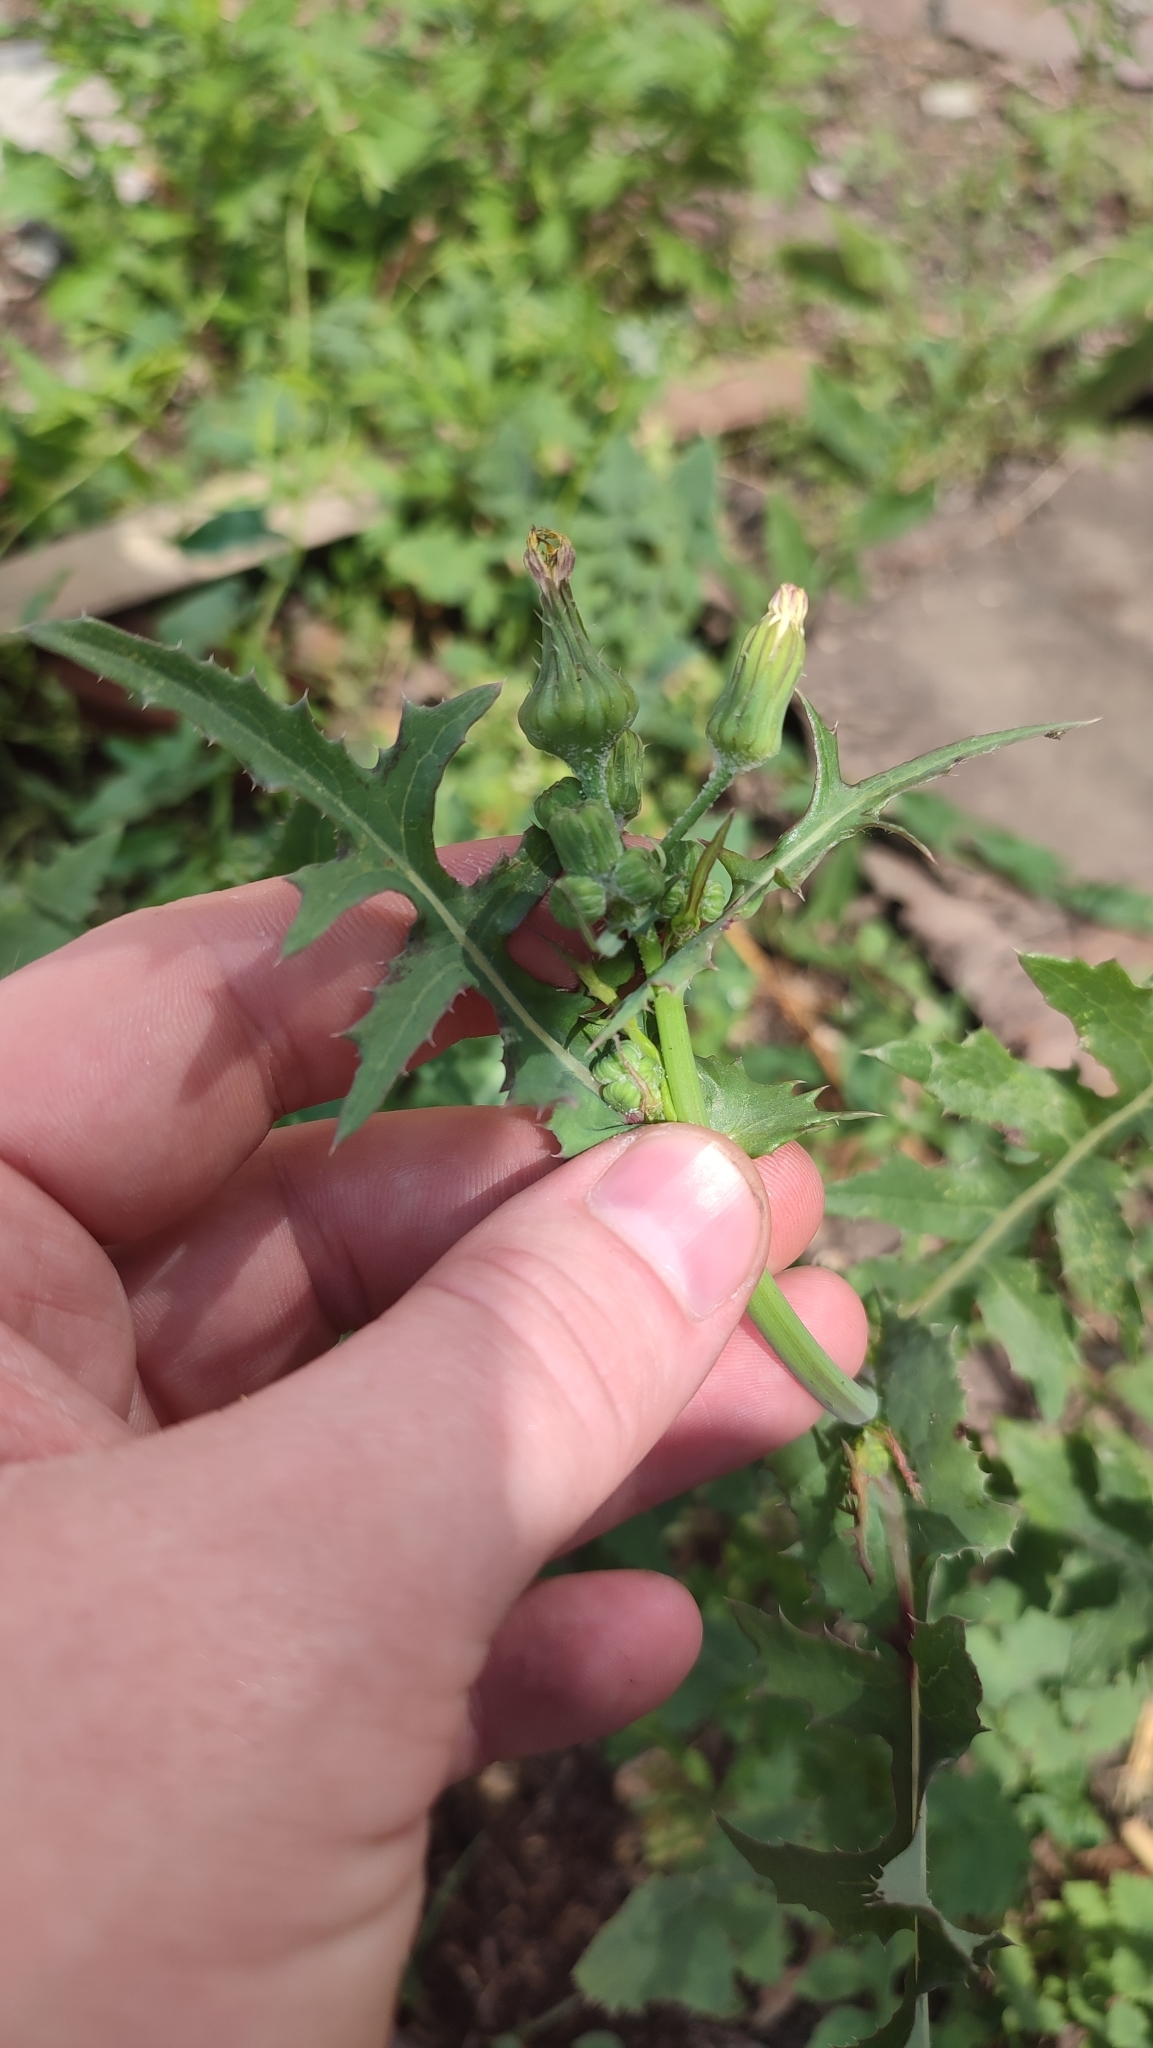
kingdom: Plantae
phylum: Tracheophyta
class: Magnoliopsida
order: Asterales
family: Asteraceae
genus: Sonchus
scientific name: Sonchus oleraceus
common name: Common sowthistle
